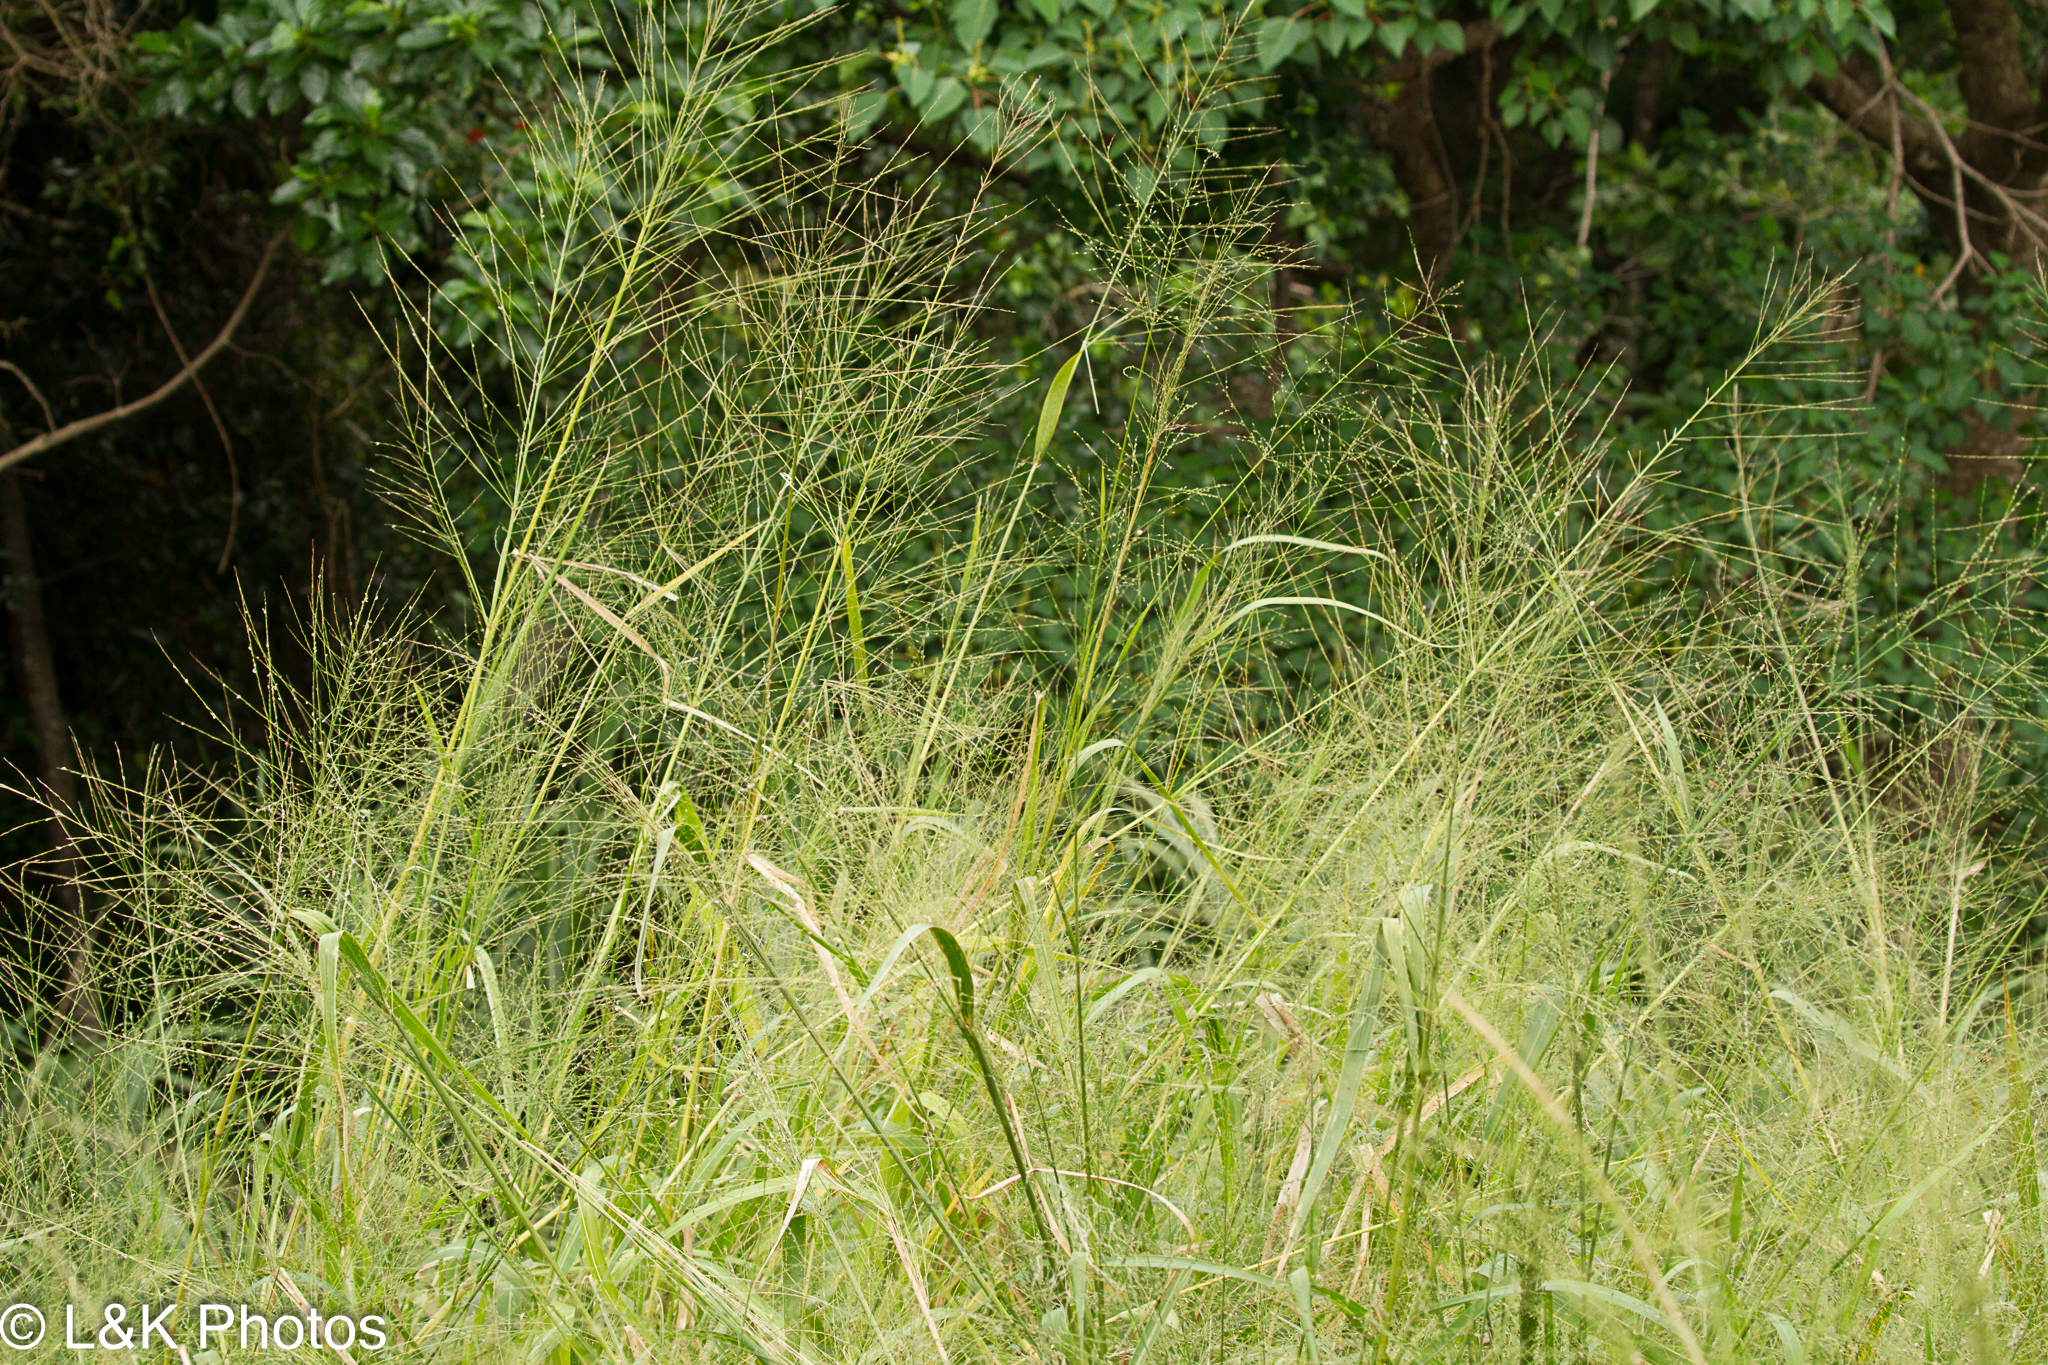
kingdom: Plantae
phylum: Tracheophyta
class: Liliopsida
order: Poales
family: Poaceae
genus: Megathyrsus
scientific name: Megathyrsus maximus
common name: Guineagrass
